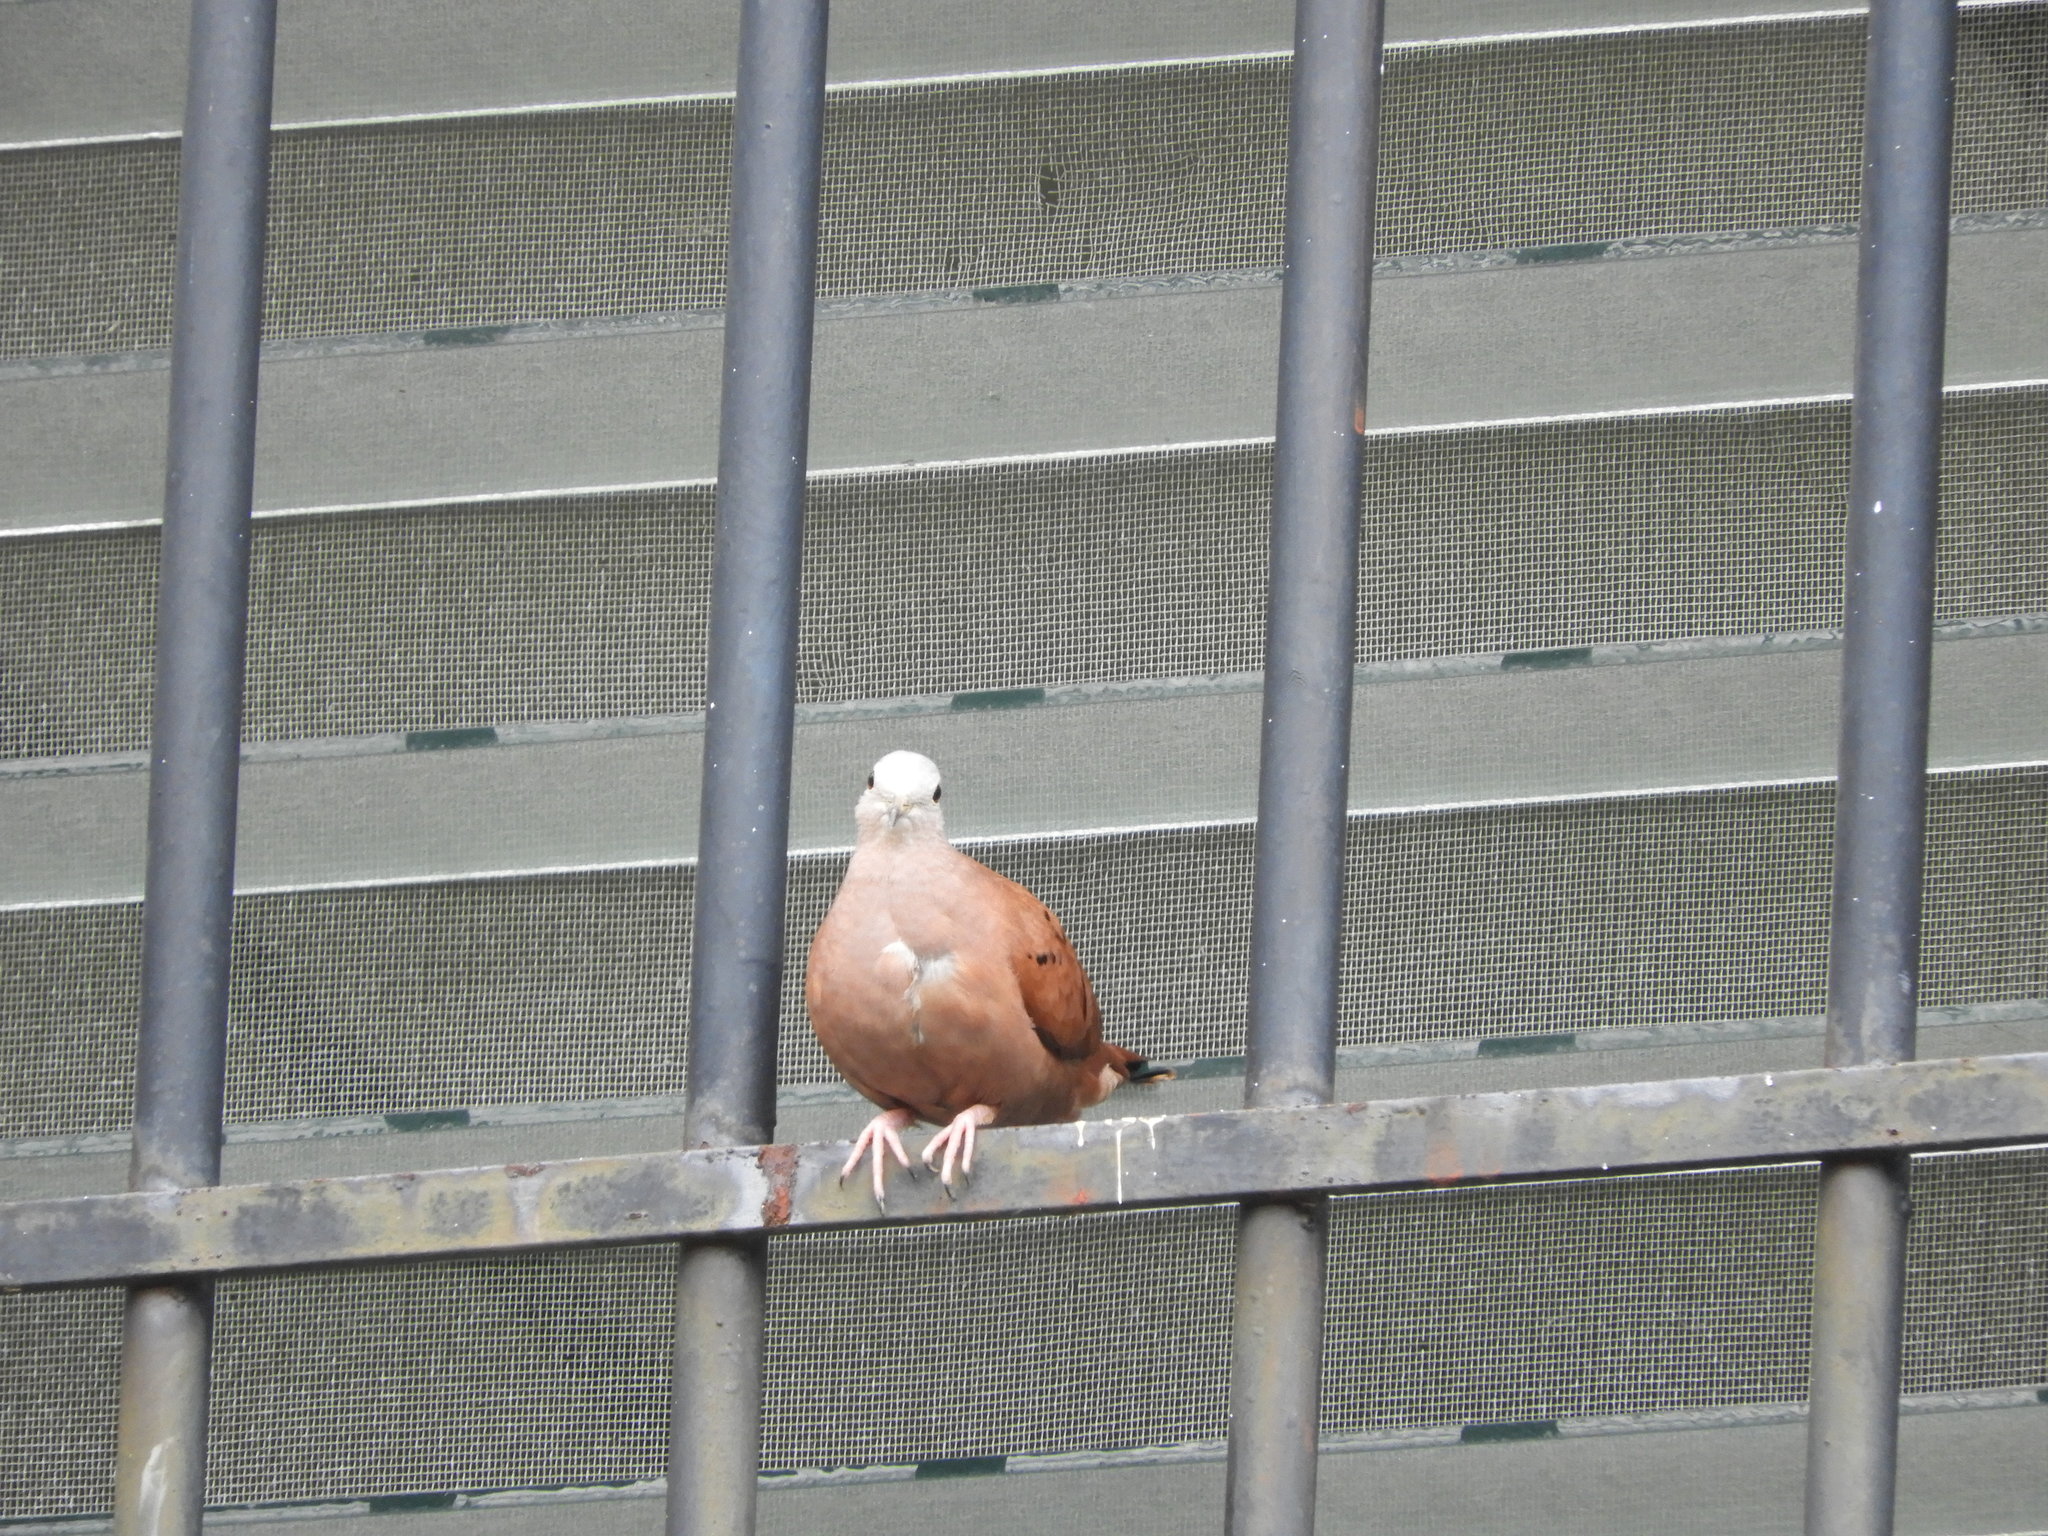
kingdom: Animalia
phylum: Chordata
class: Aves
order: Columbiformes
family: Columbidae
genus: Columbina
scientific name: Columbina talpacoti
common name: Ruddy ground dove
